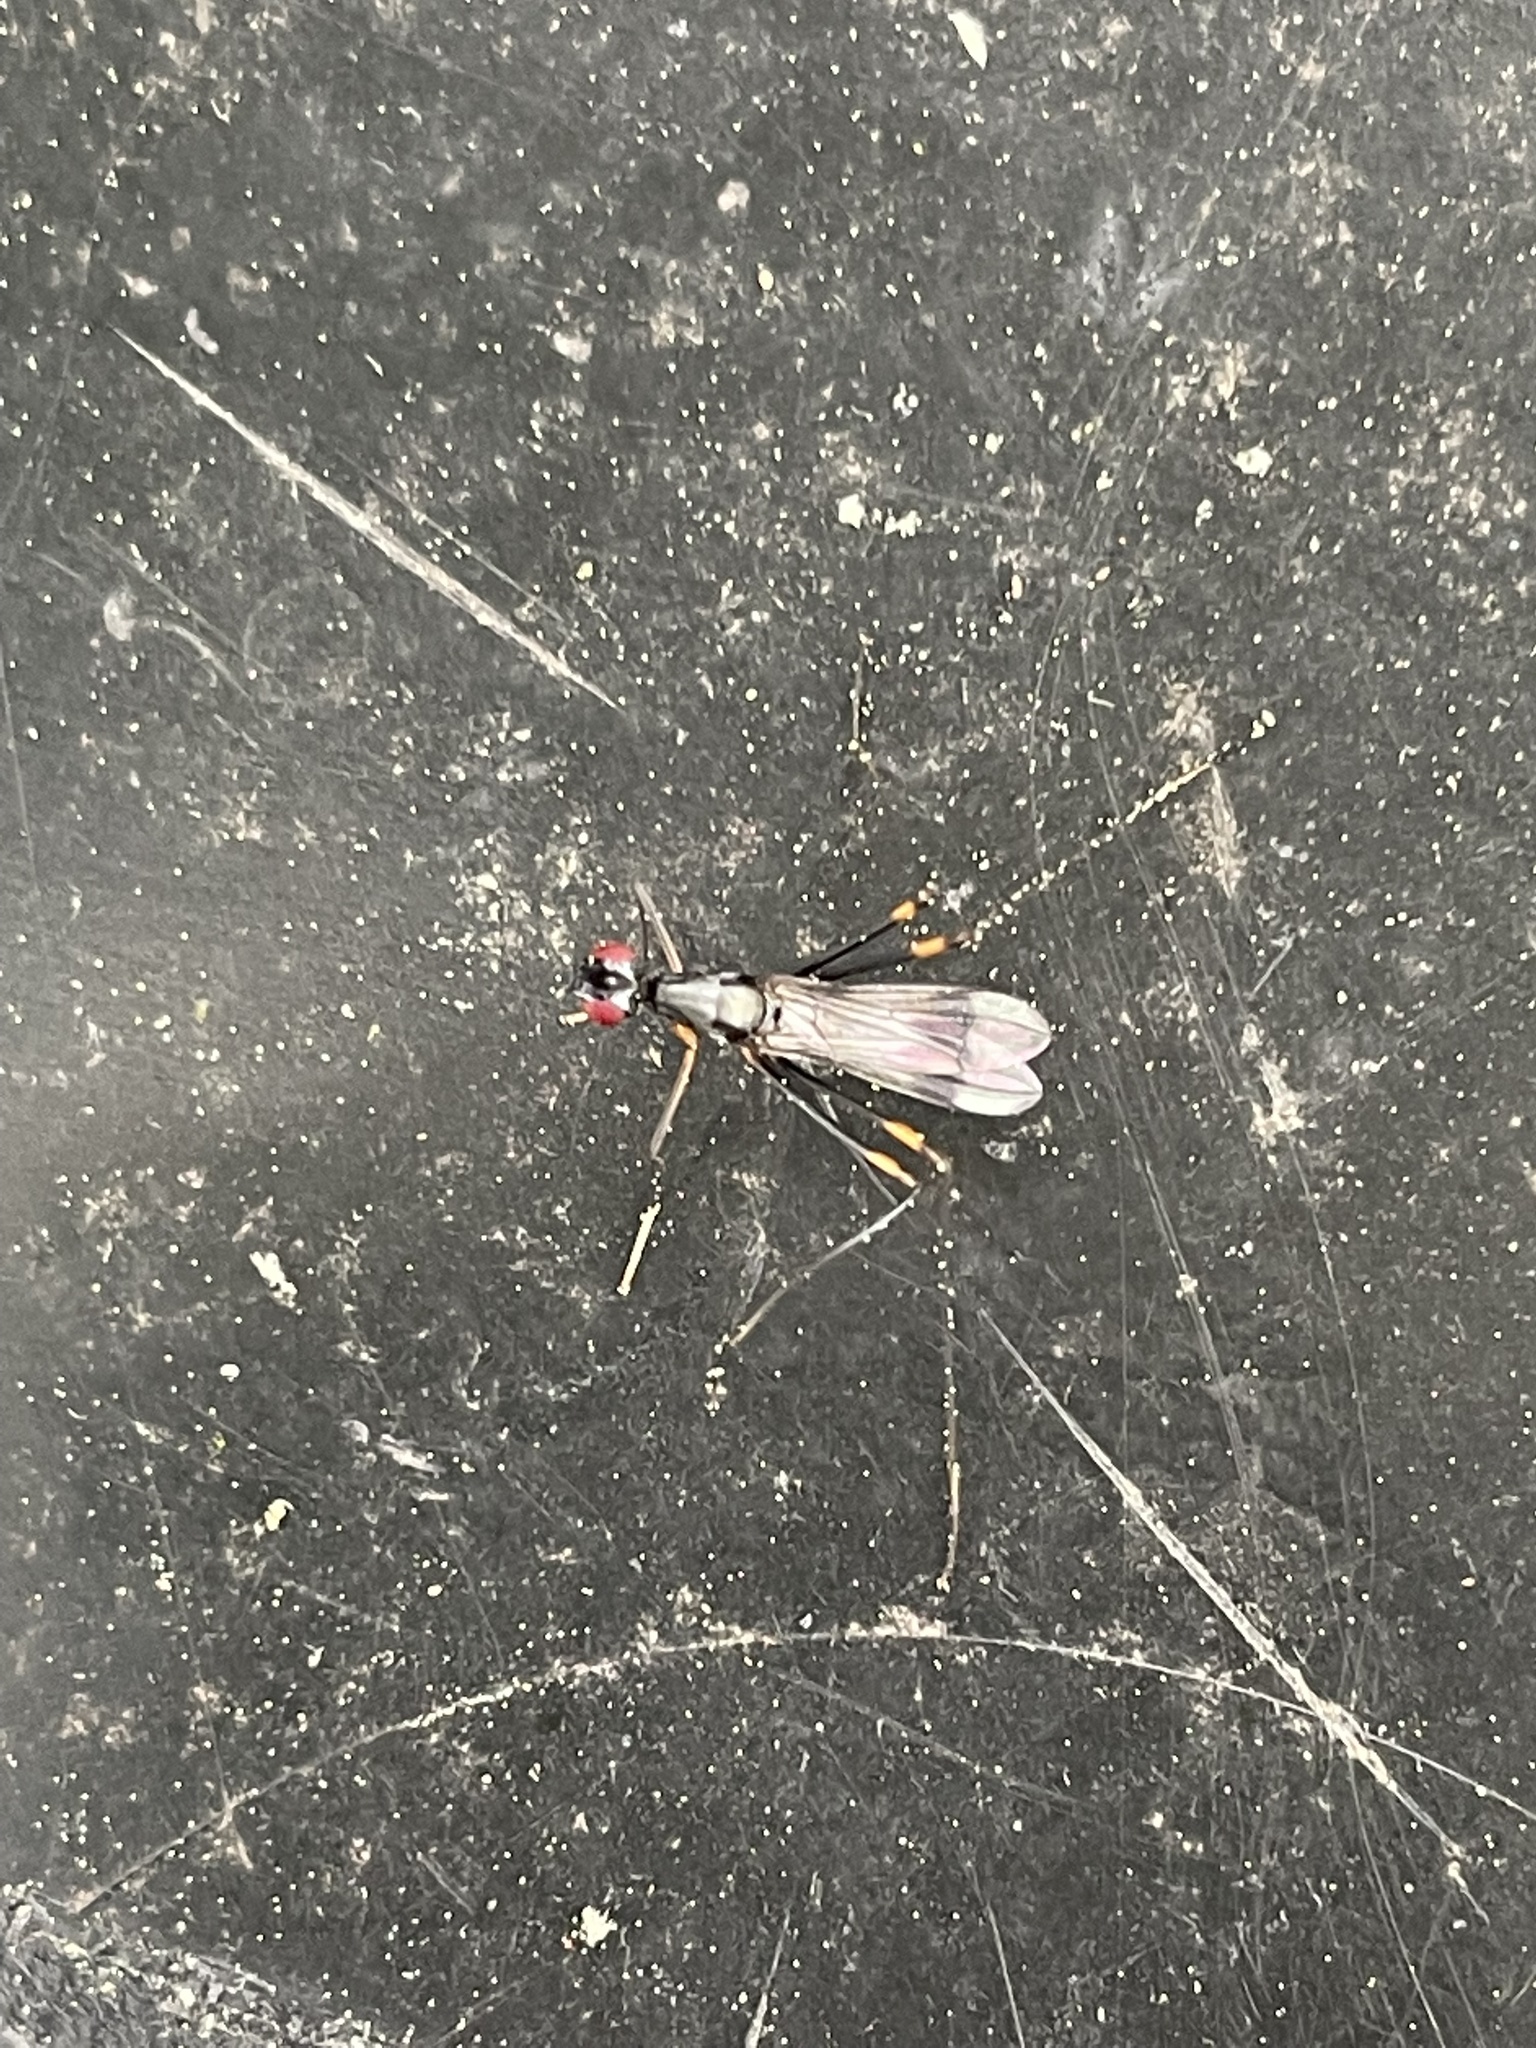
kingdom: Animalia
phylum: Arthropoda
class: Insecta
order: Diptera
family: Micropezidae
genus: Rainieria
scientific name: Rainieria antennaepes
